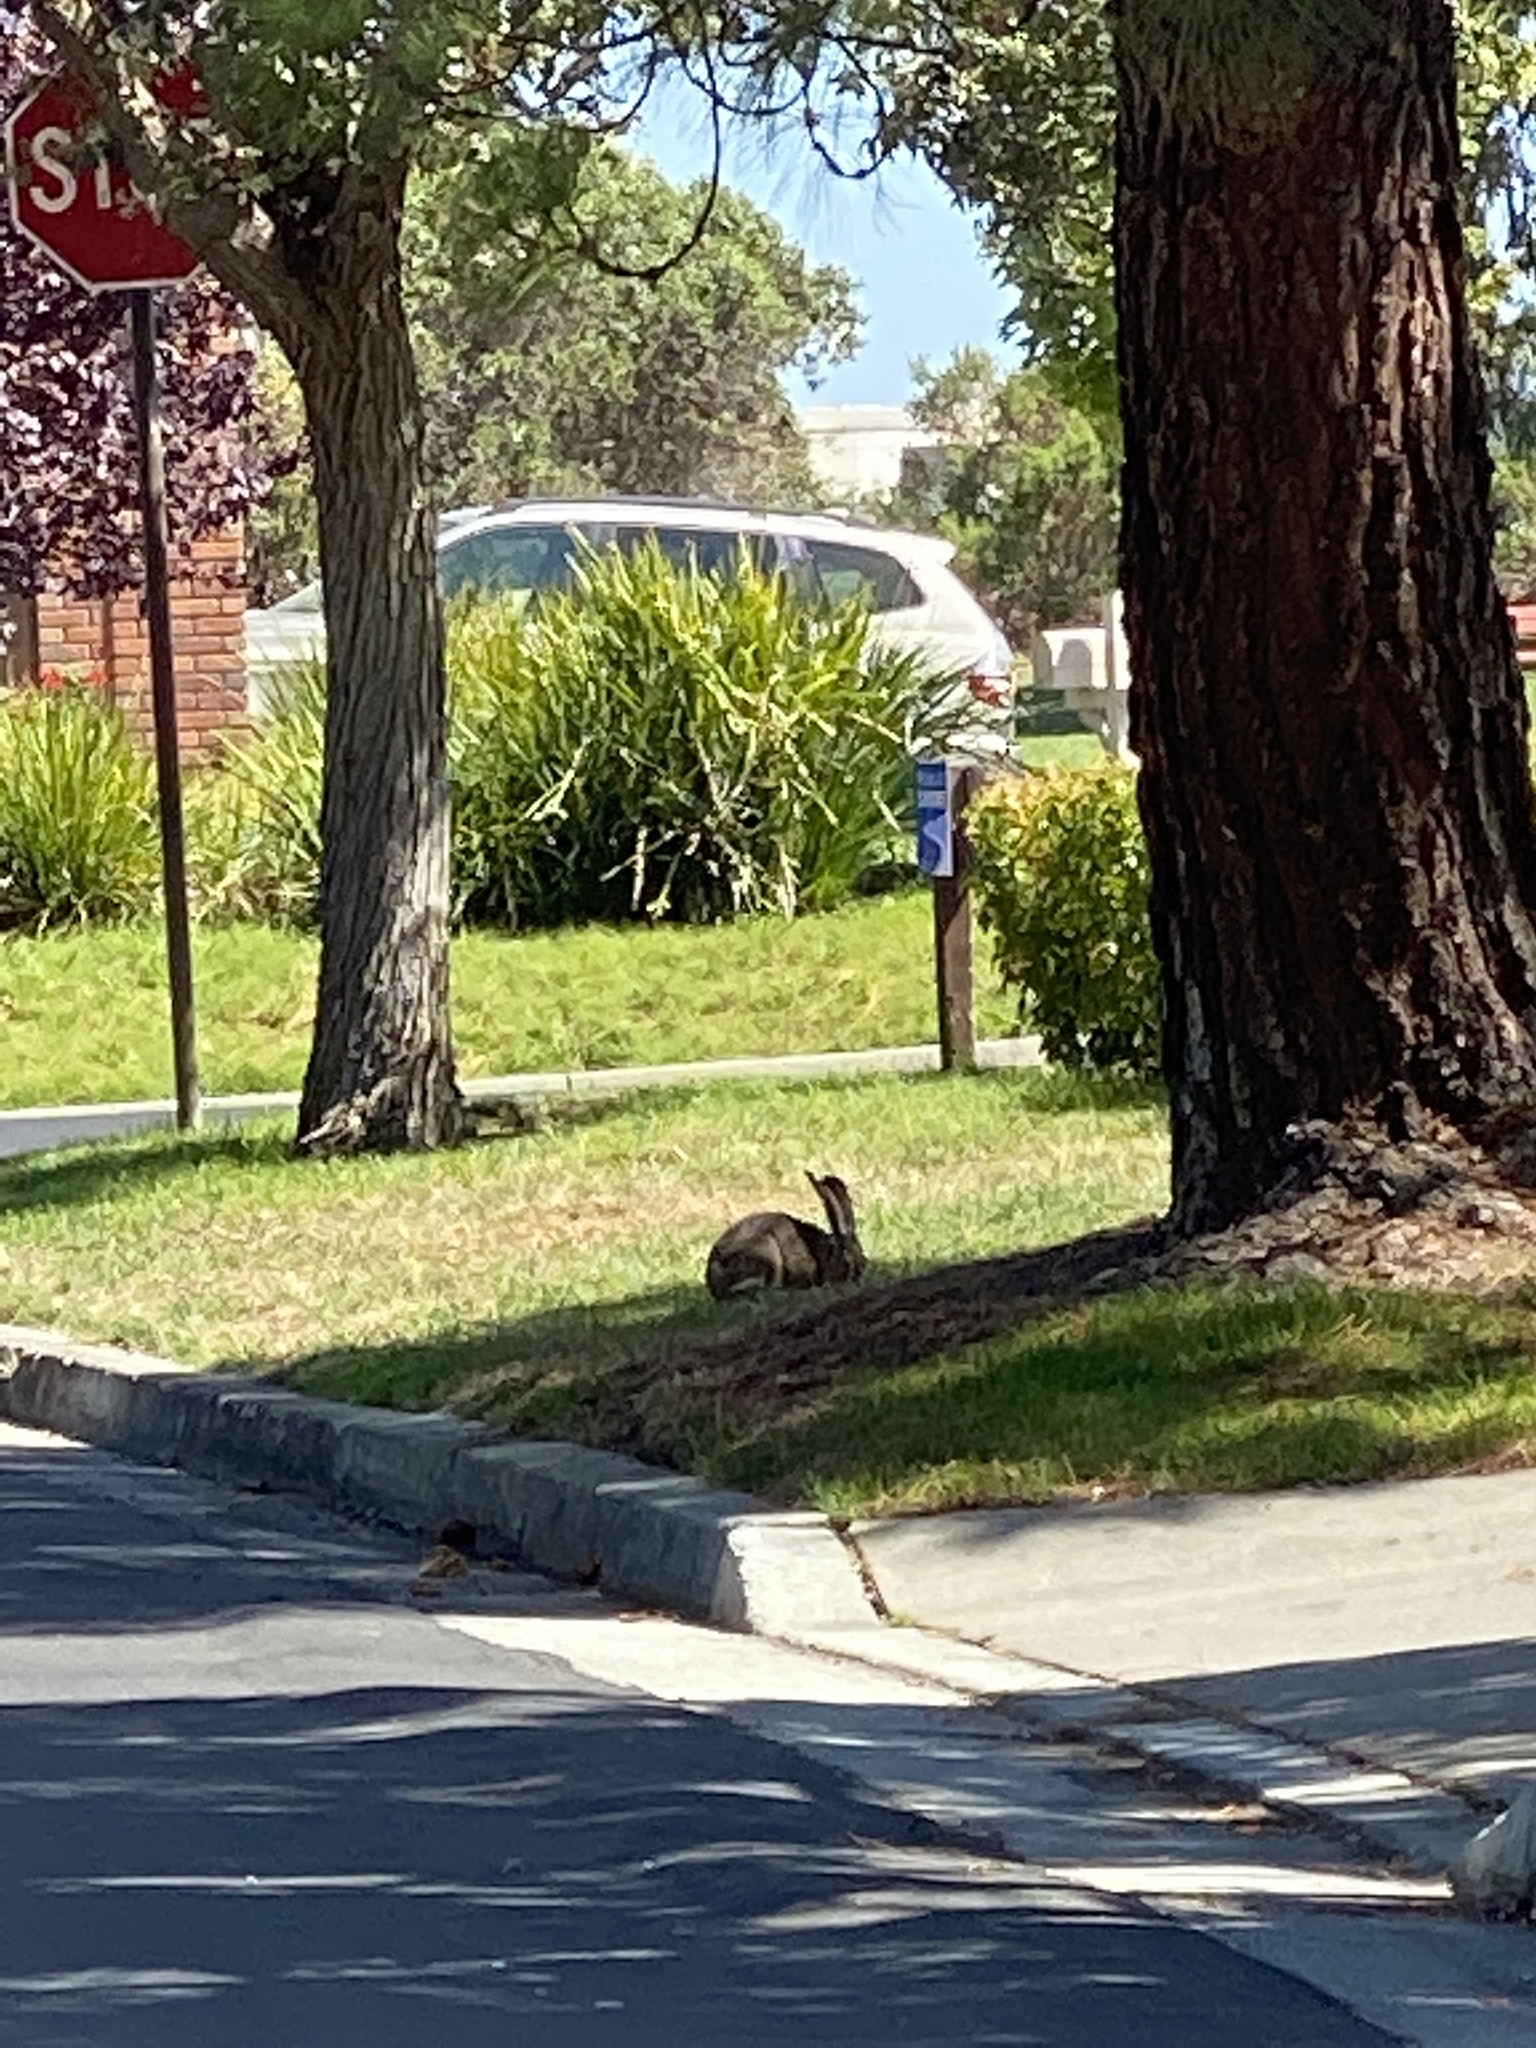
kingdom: Animalia
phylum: Chordata
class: Mammalia
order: Lagomorpha
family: Leporidae
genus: Lepus
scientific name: Lepus californicus
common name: Black-tailed jackrabbit
